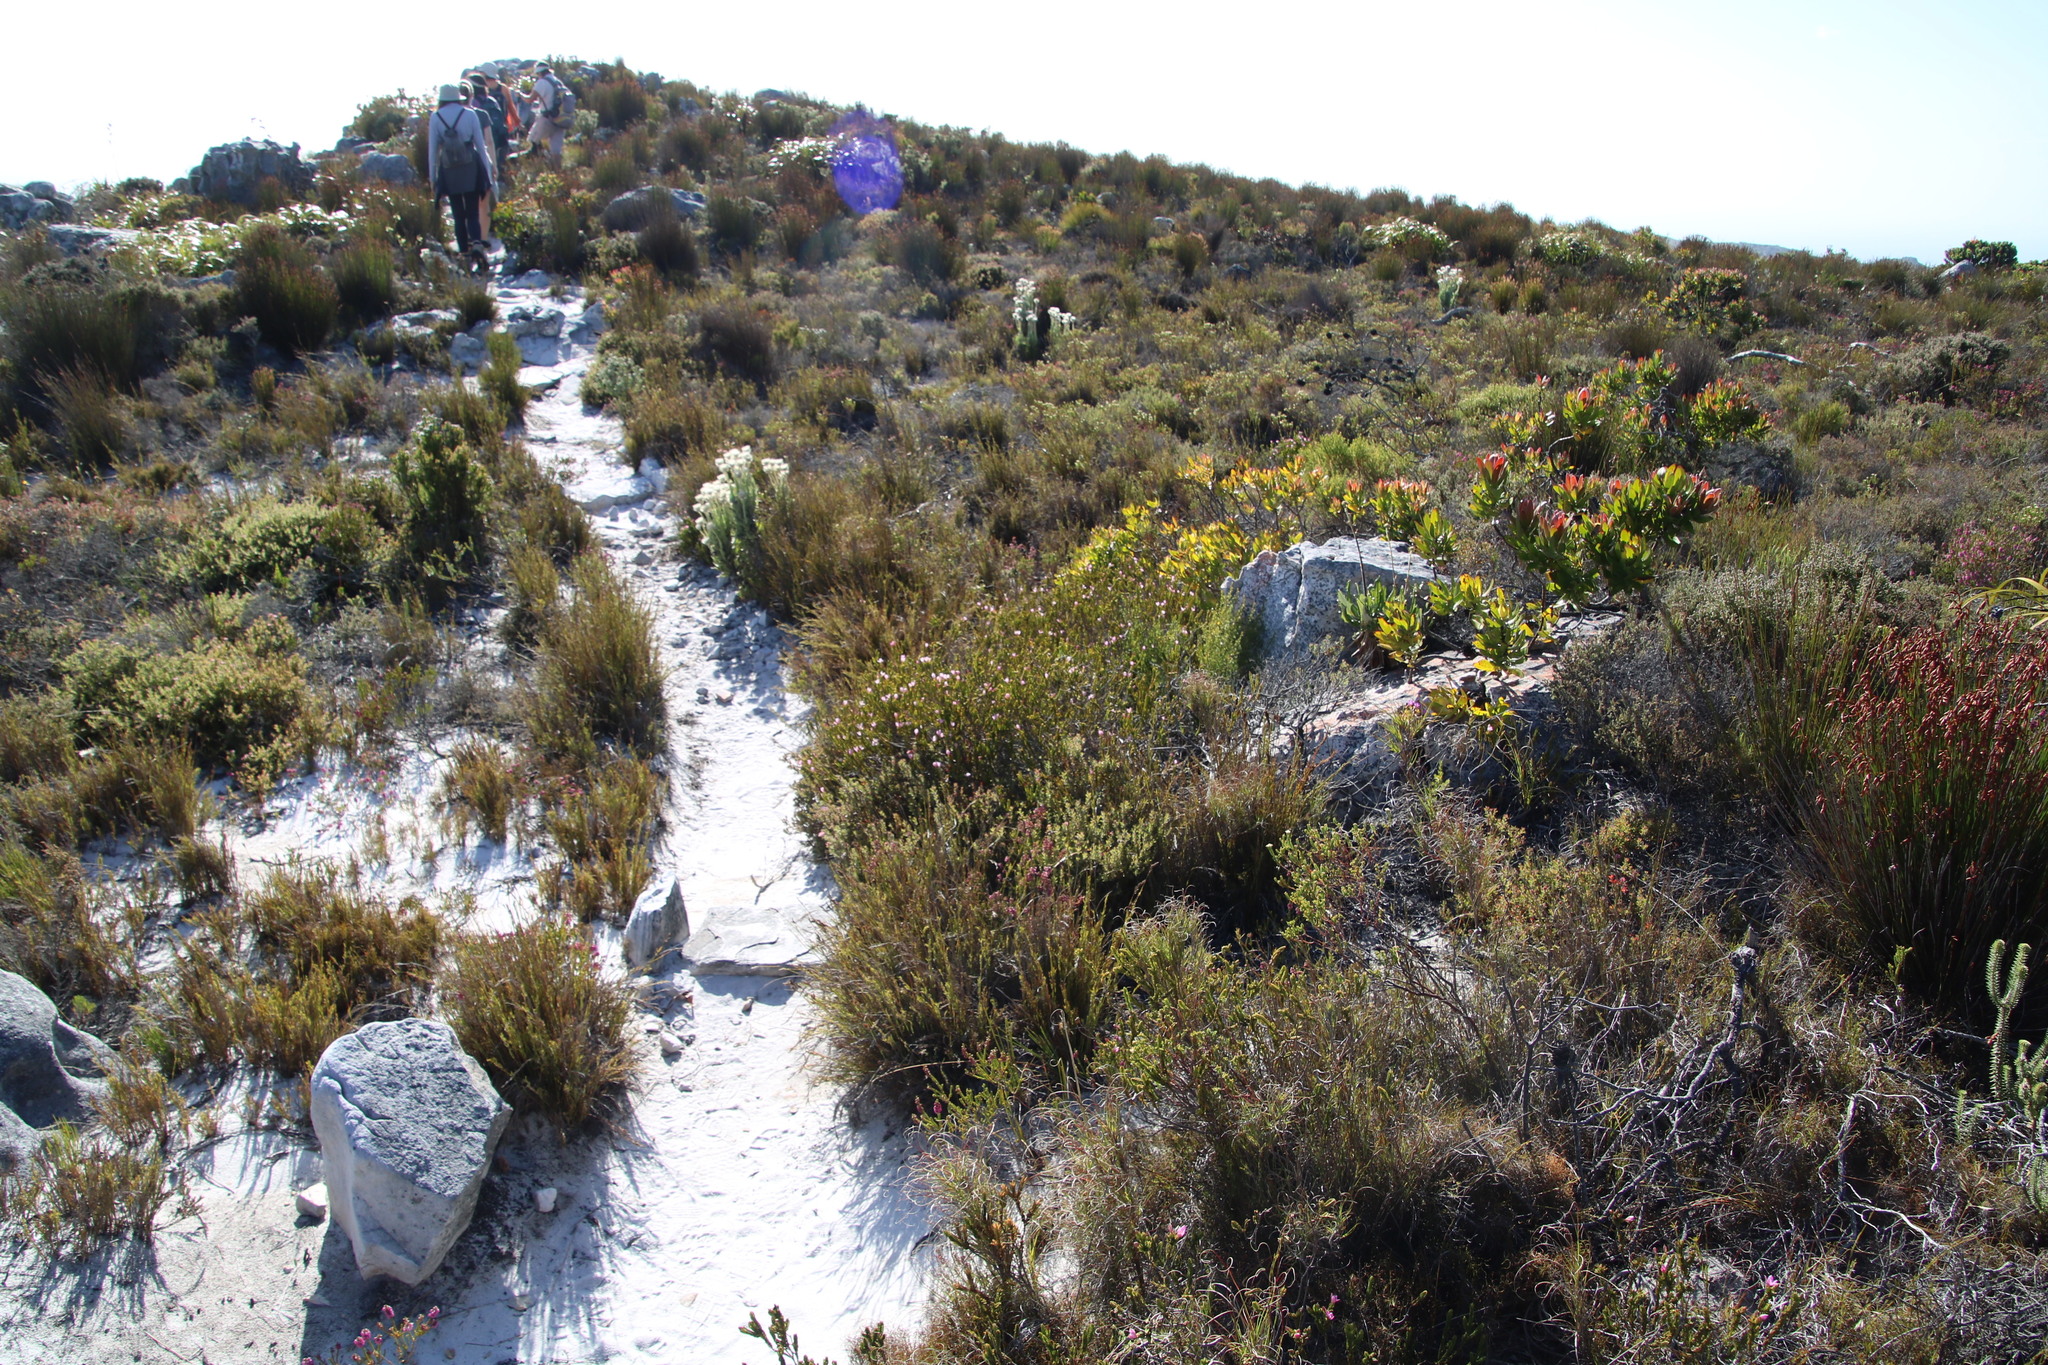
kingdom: Plantae
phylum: Tracheophyta
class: Magnoliopsida
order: Malvales
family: Thymelaeaceae
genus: Lachnaea
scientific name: Lachnaea grandiflora
